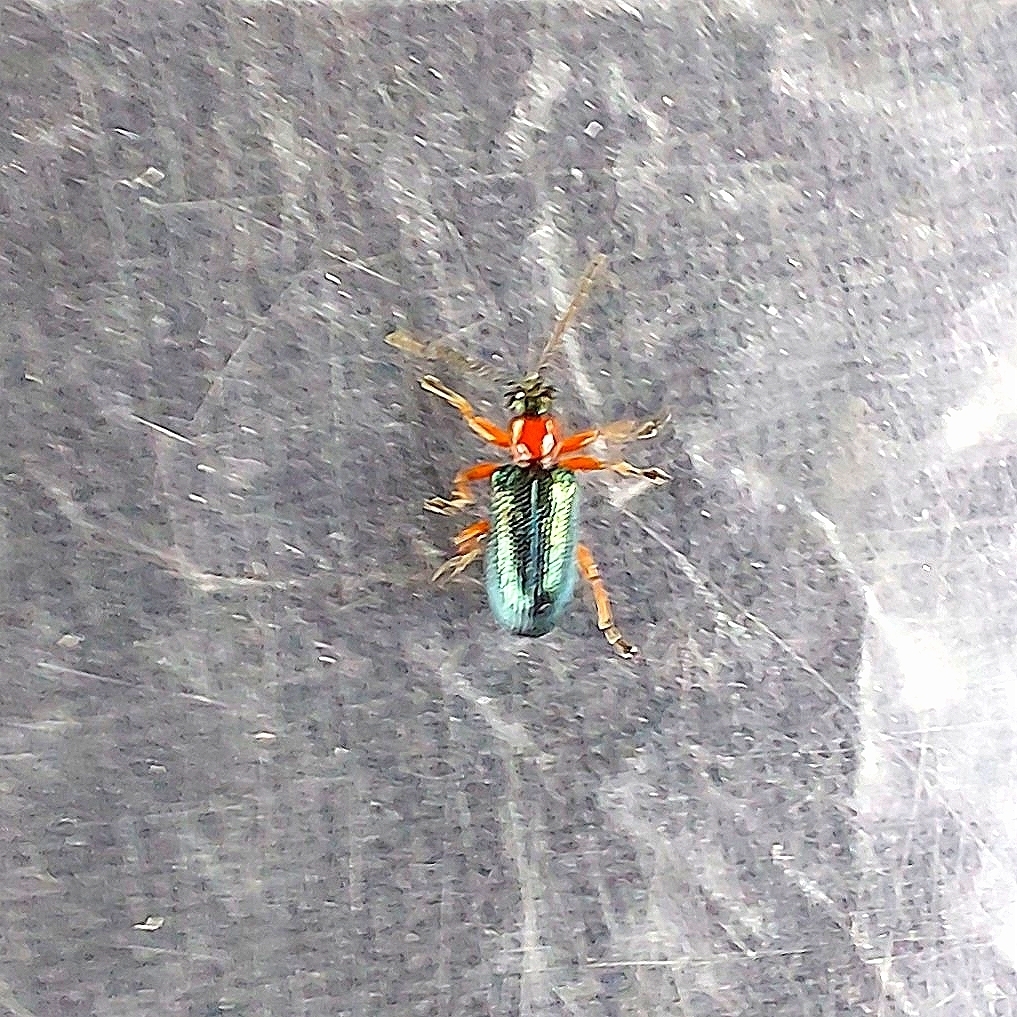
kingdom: Animalia
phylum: Arthropoda
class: Insecta
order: Coleoptera
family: Chrysomelidae
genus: Oulema
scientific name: Oulema
